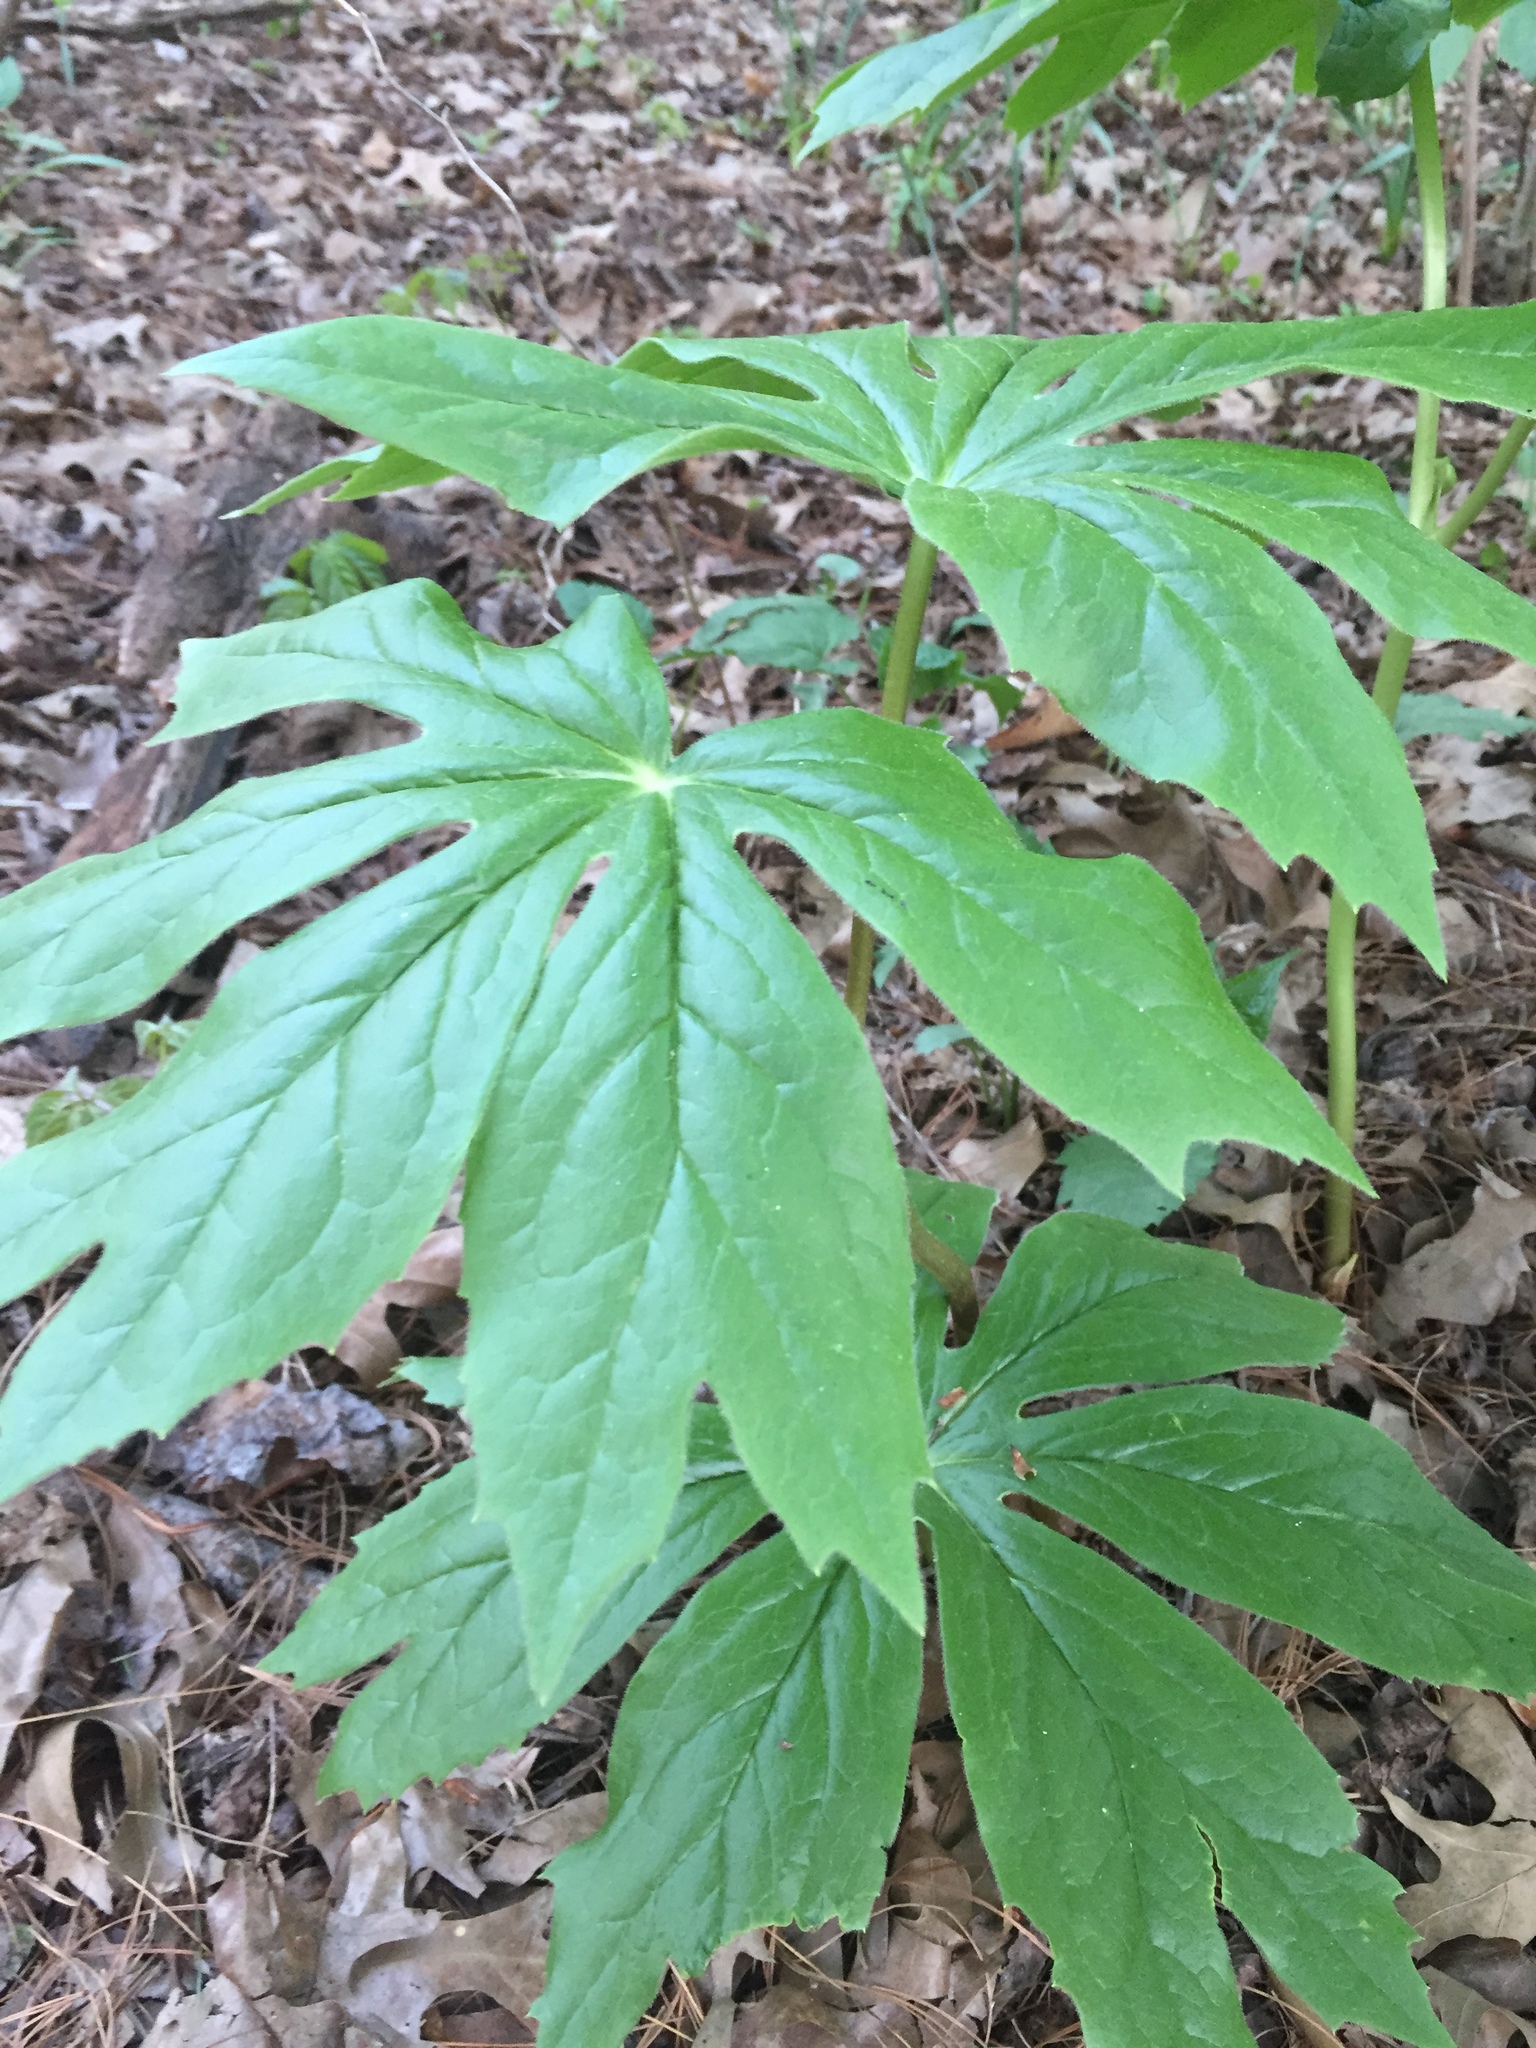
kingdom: Plantae
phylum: Tracheophyta
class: Magnoliopsida
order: Ranunculales
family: Berberidaceae
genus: Podophyllum
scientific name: Podophyllum peltatum
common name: Wild mandrake
